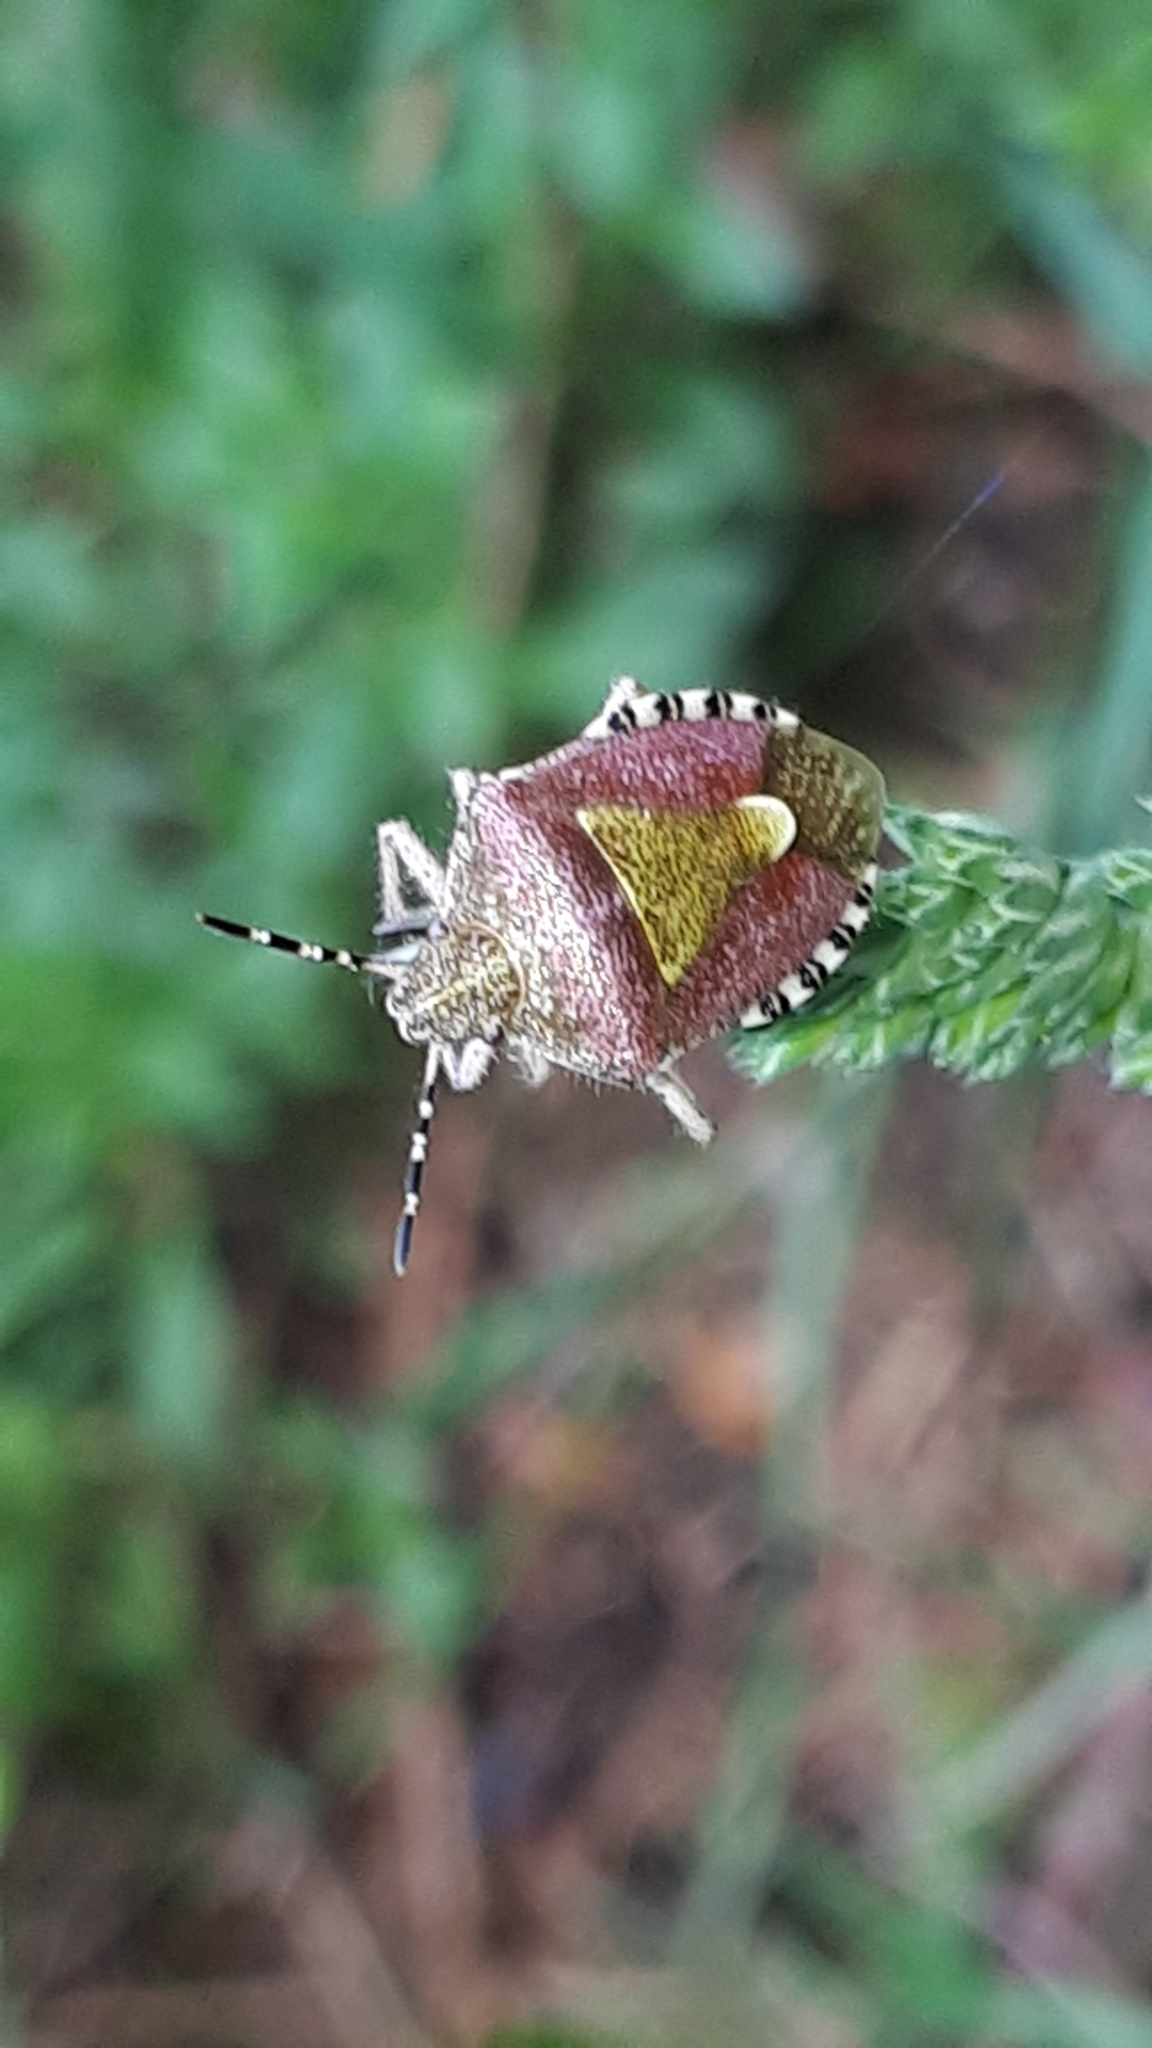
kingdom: Animalia
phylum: Arthropoda
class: Insecta
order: Hemiptera
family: Pentatomidae
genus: Dolycoris
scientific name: Dolycoris baccarum
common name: Sloe bug
